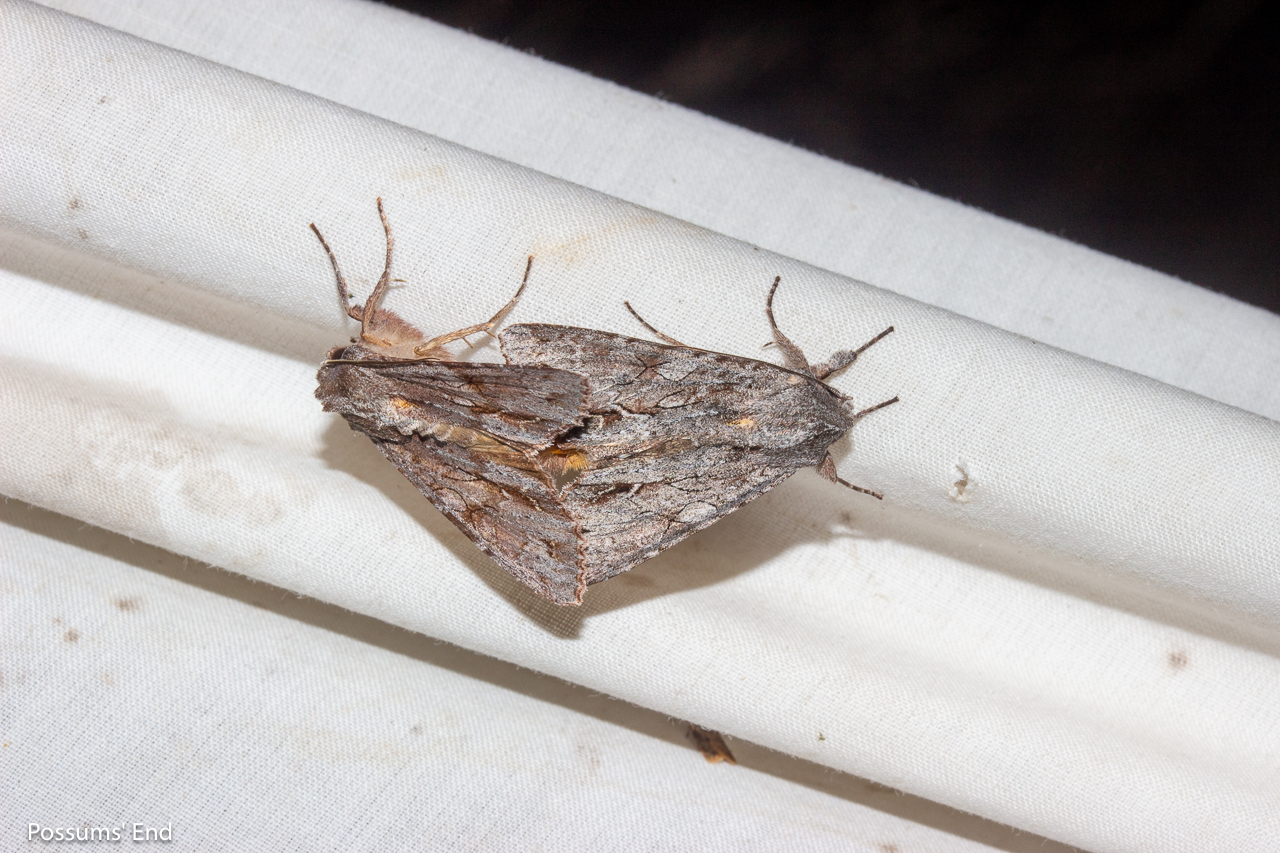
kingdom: Animalia
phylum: Arthropoda
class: Insecta
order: Lepidoptera
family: Noctuidae
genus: Ichneutica
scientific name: Ichneutica
